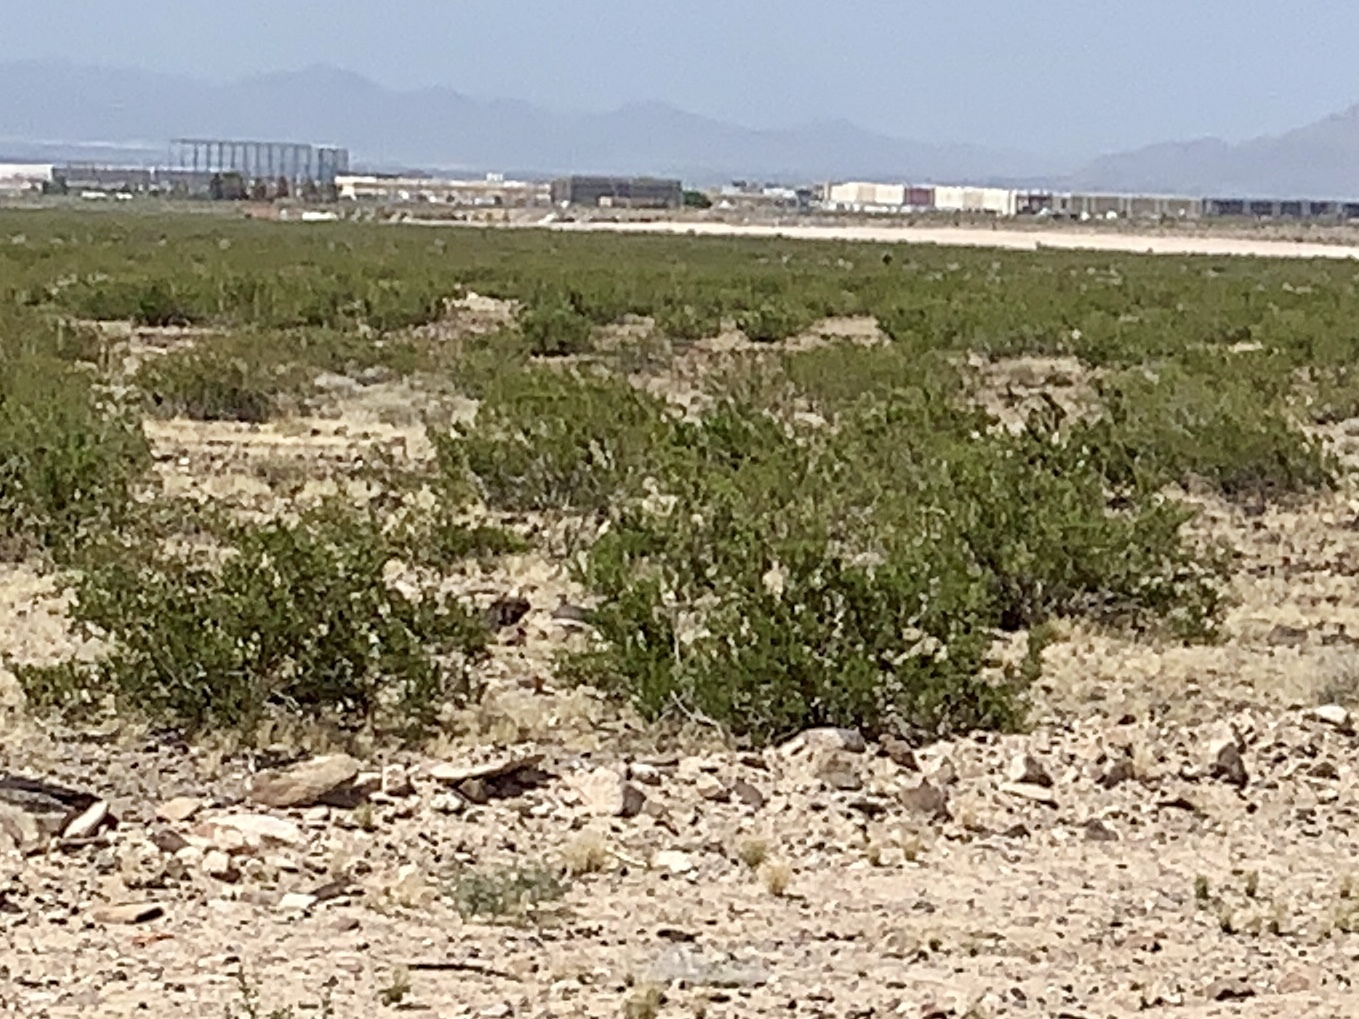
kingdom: Plantae
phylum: Tracheophyta
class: Magnoliopsida
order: Zygophyllales
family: Zygophyllaceae
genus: Larrea
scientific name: Larrea tridentata
